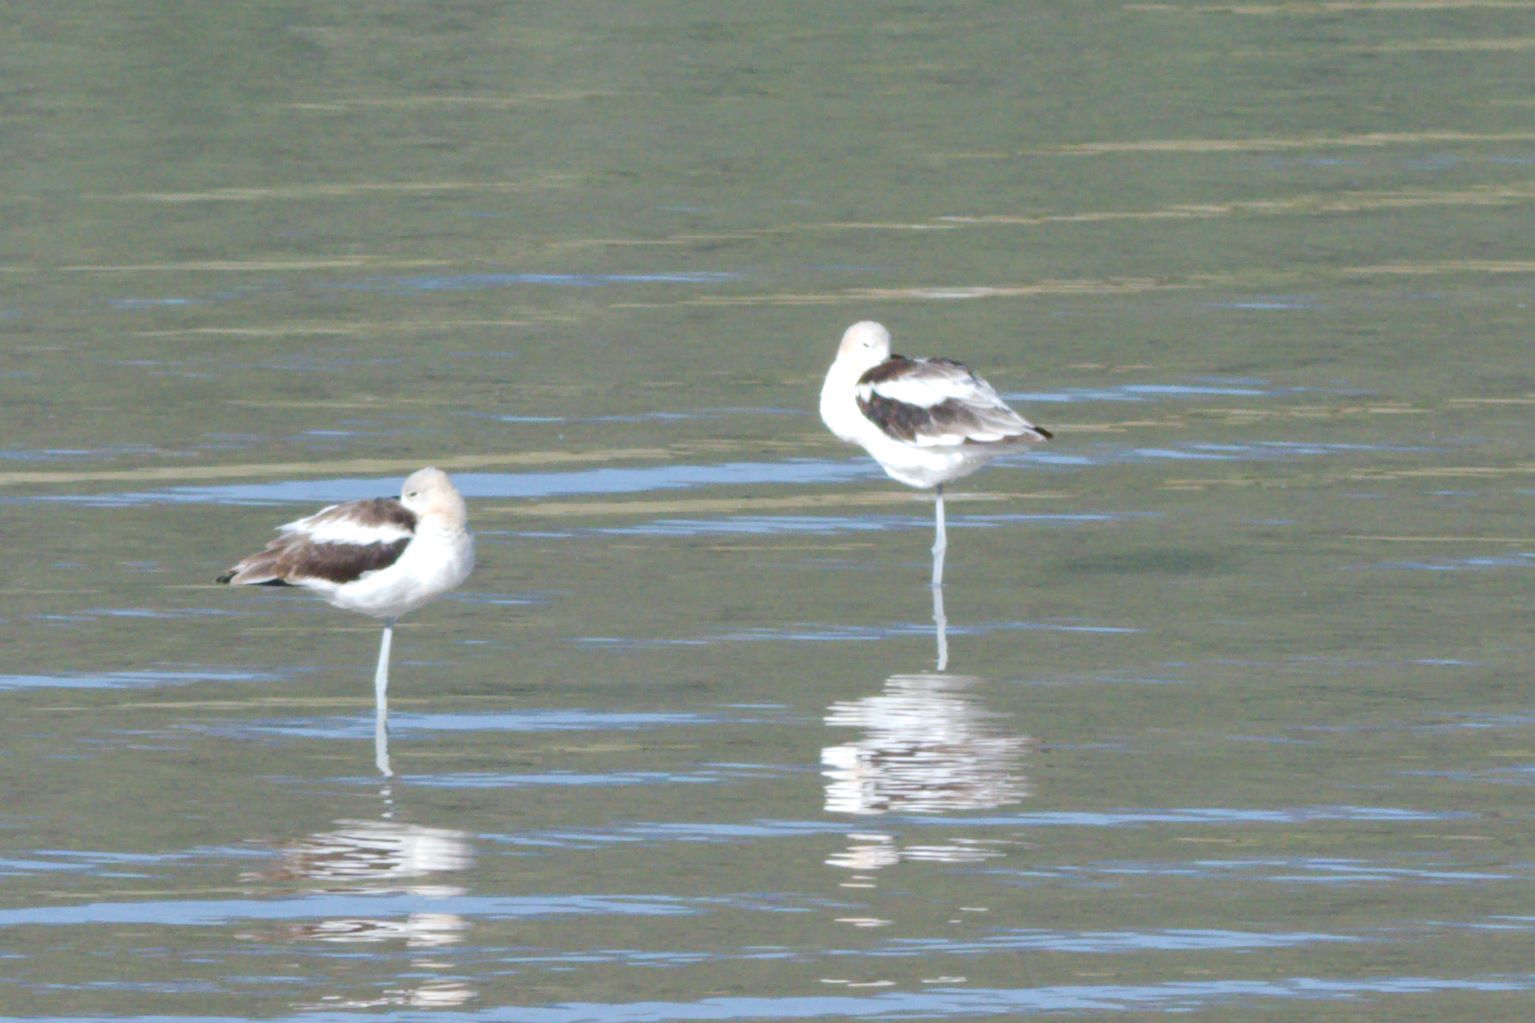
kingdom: Animalia
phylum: Chordata
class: Aves
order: Charadriiformes
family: Recurvirostridae
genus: Recurvirostra
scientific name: Recurvirostra americana
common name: American avocet
